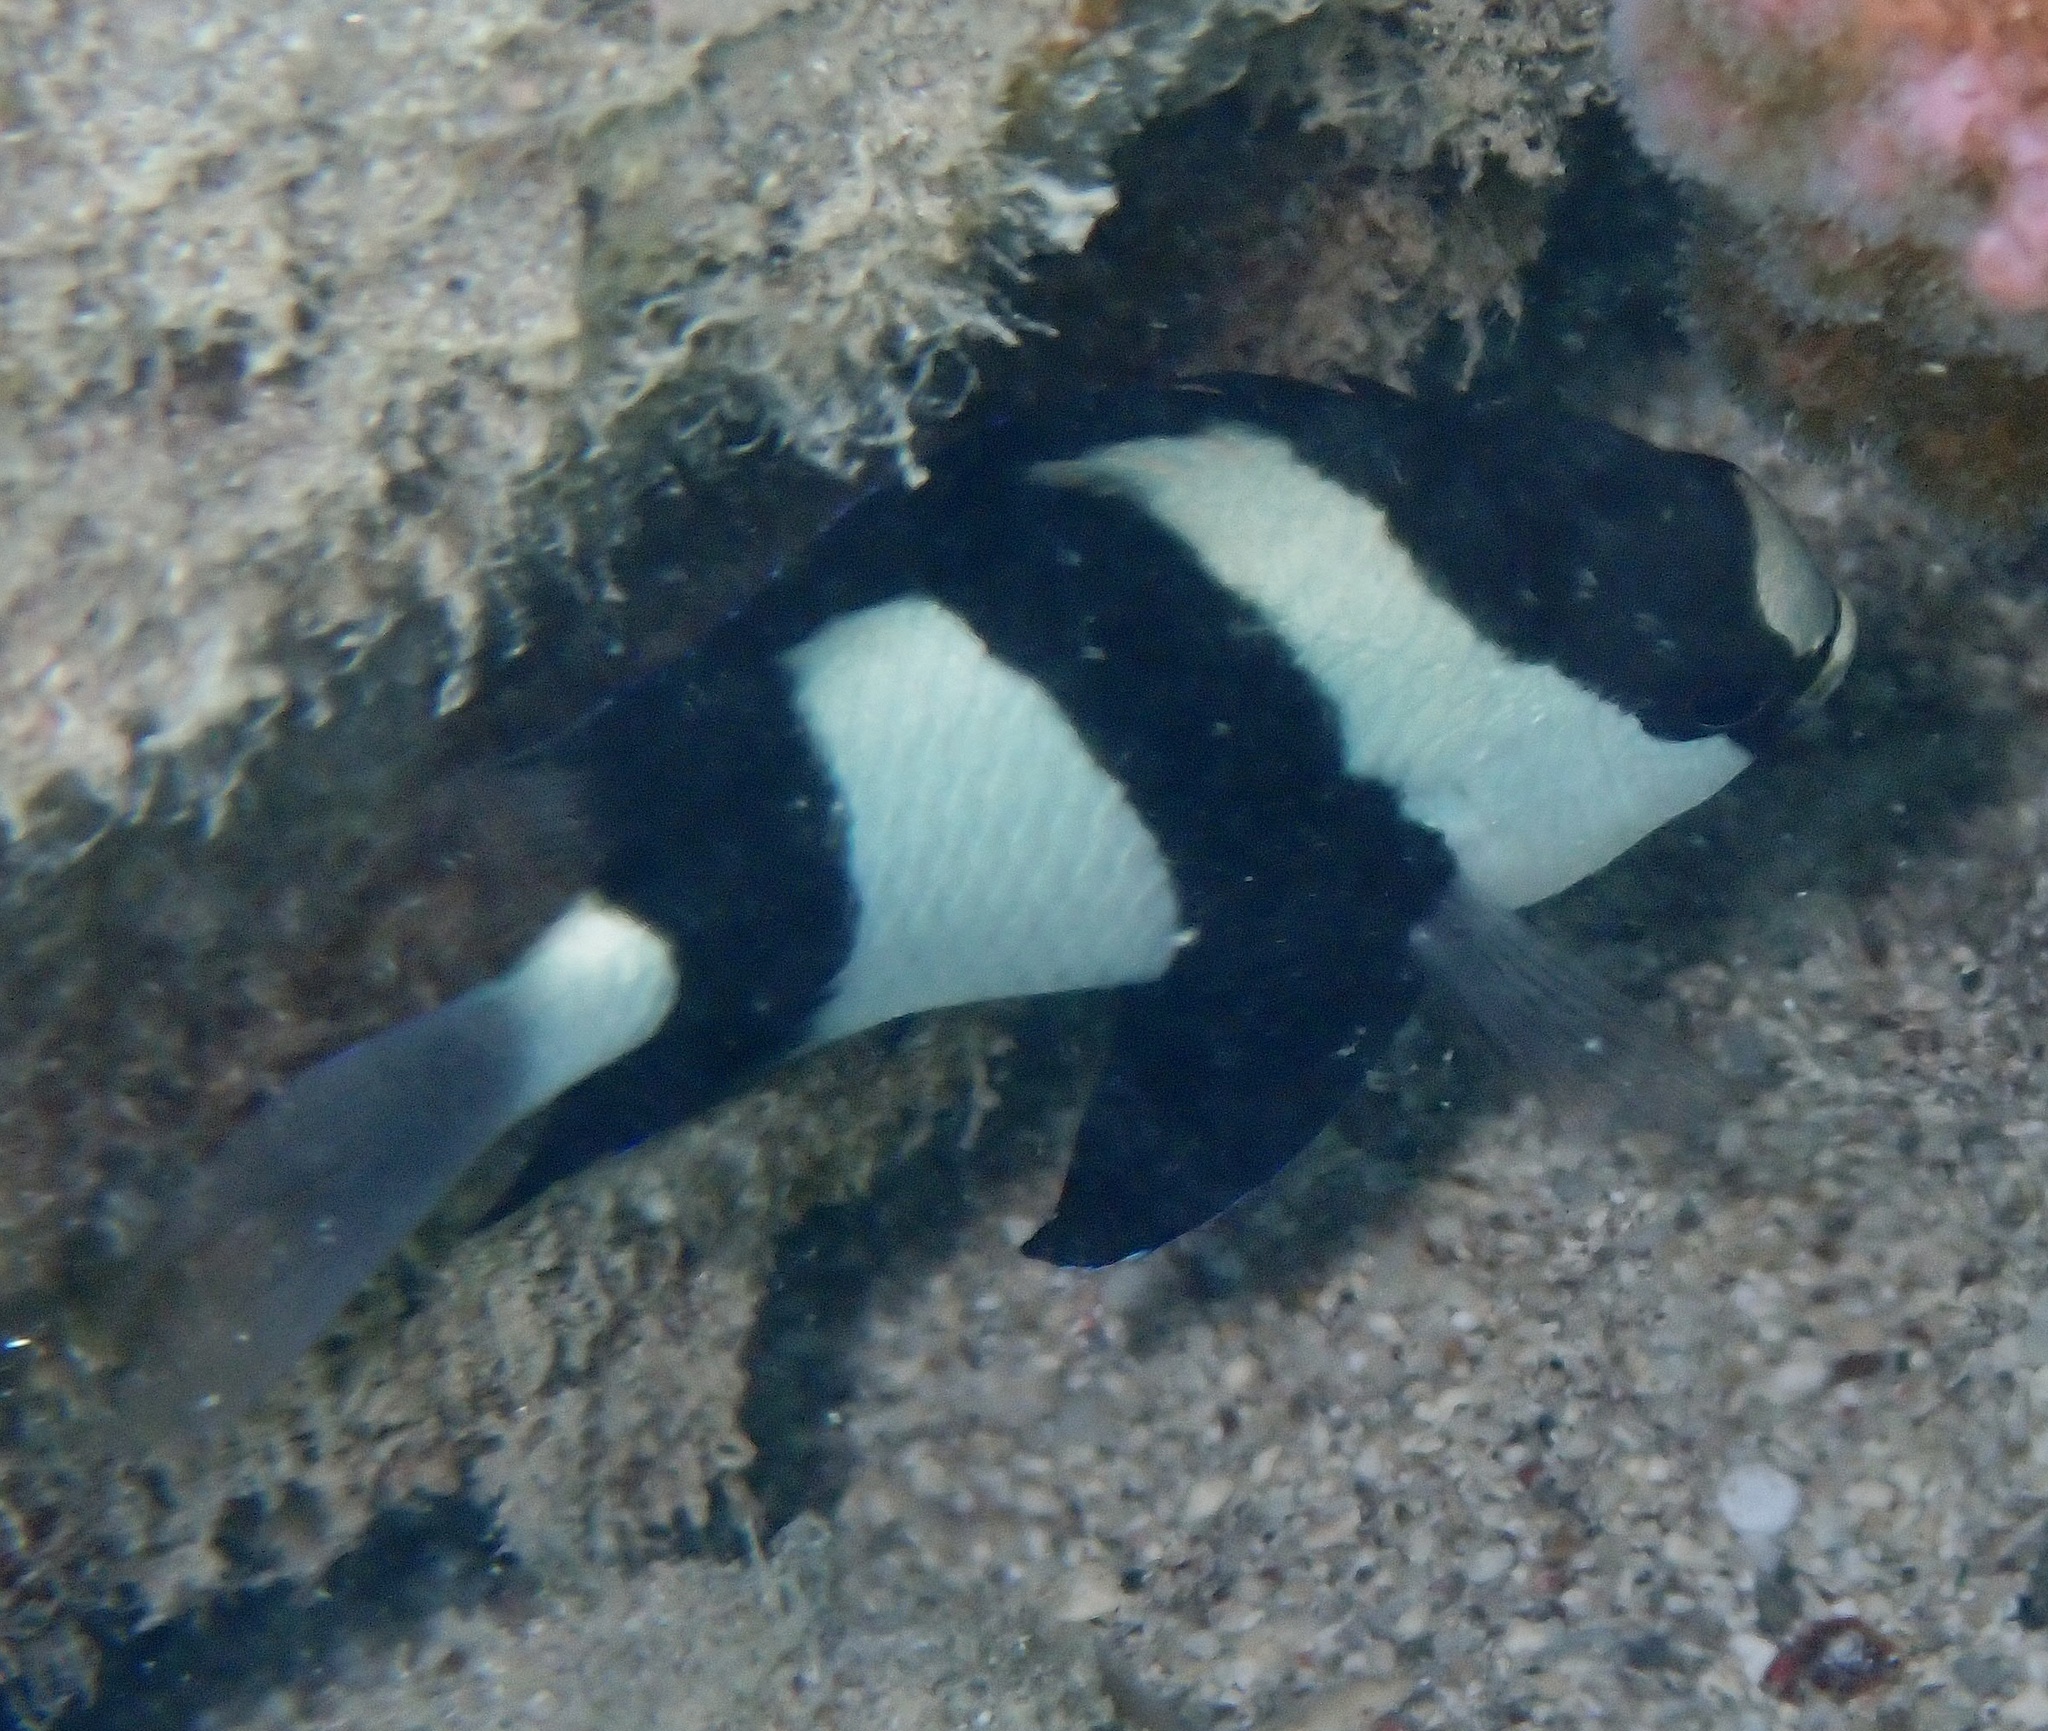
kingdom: Animalia
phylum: Chordata
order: Perciformes
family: Pomacentridae
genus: Dascyllus
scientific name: Dascyllus abudafur
